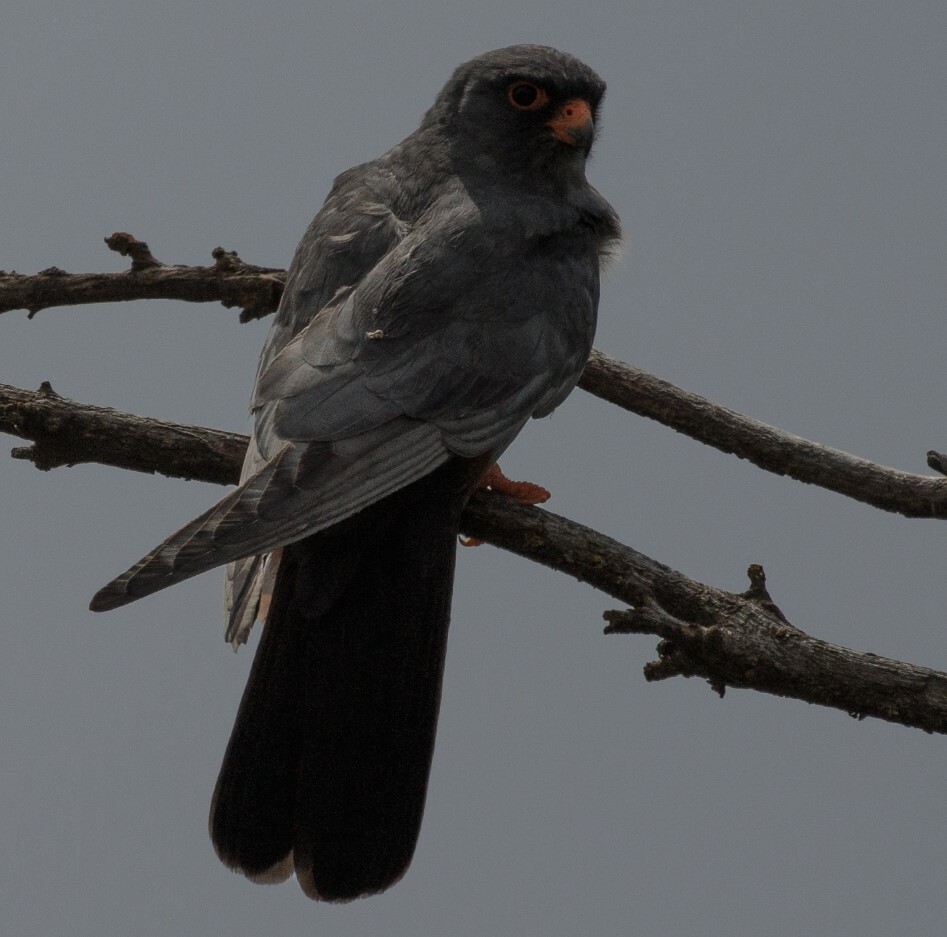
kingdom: Animalia
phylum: Chordata
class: Aves
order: Falconiformes
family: Falconidae
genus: Falco
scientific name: Falco vespertinus
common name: Red-footed falcon
